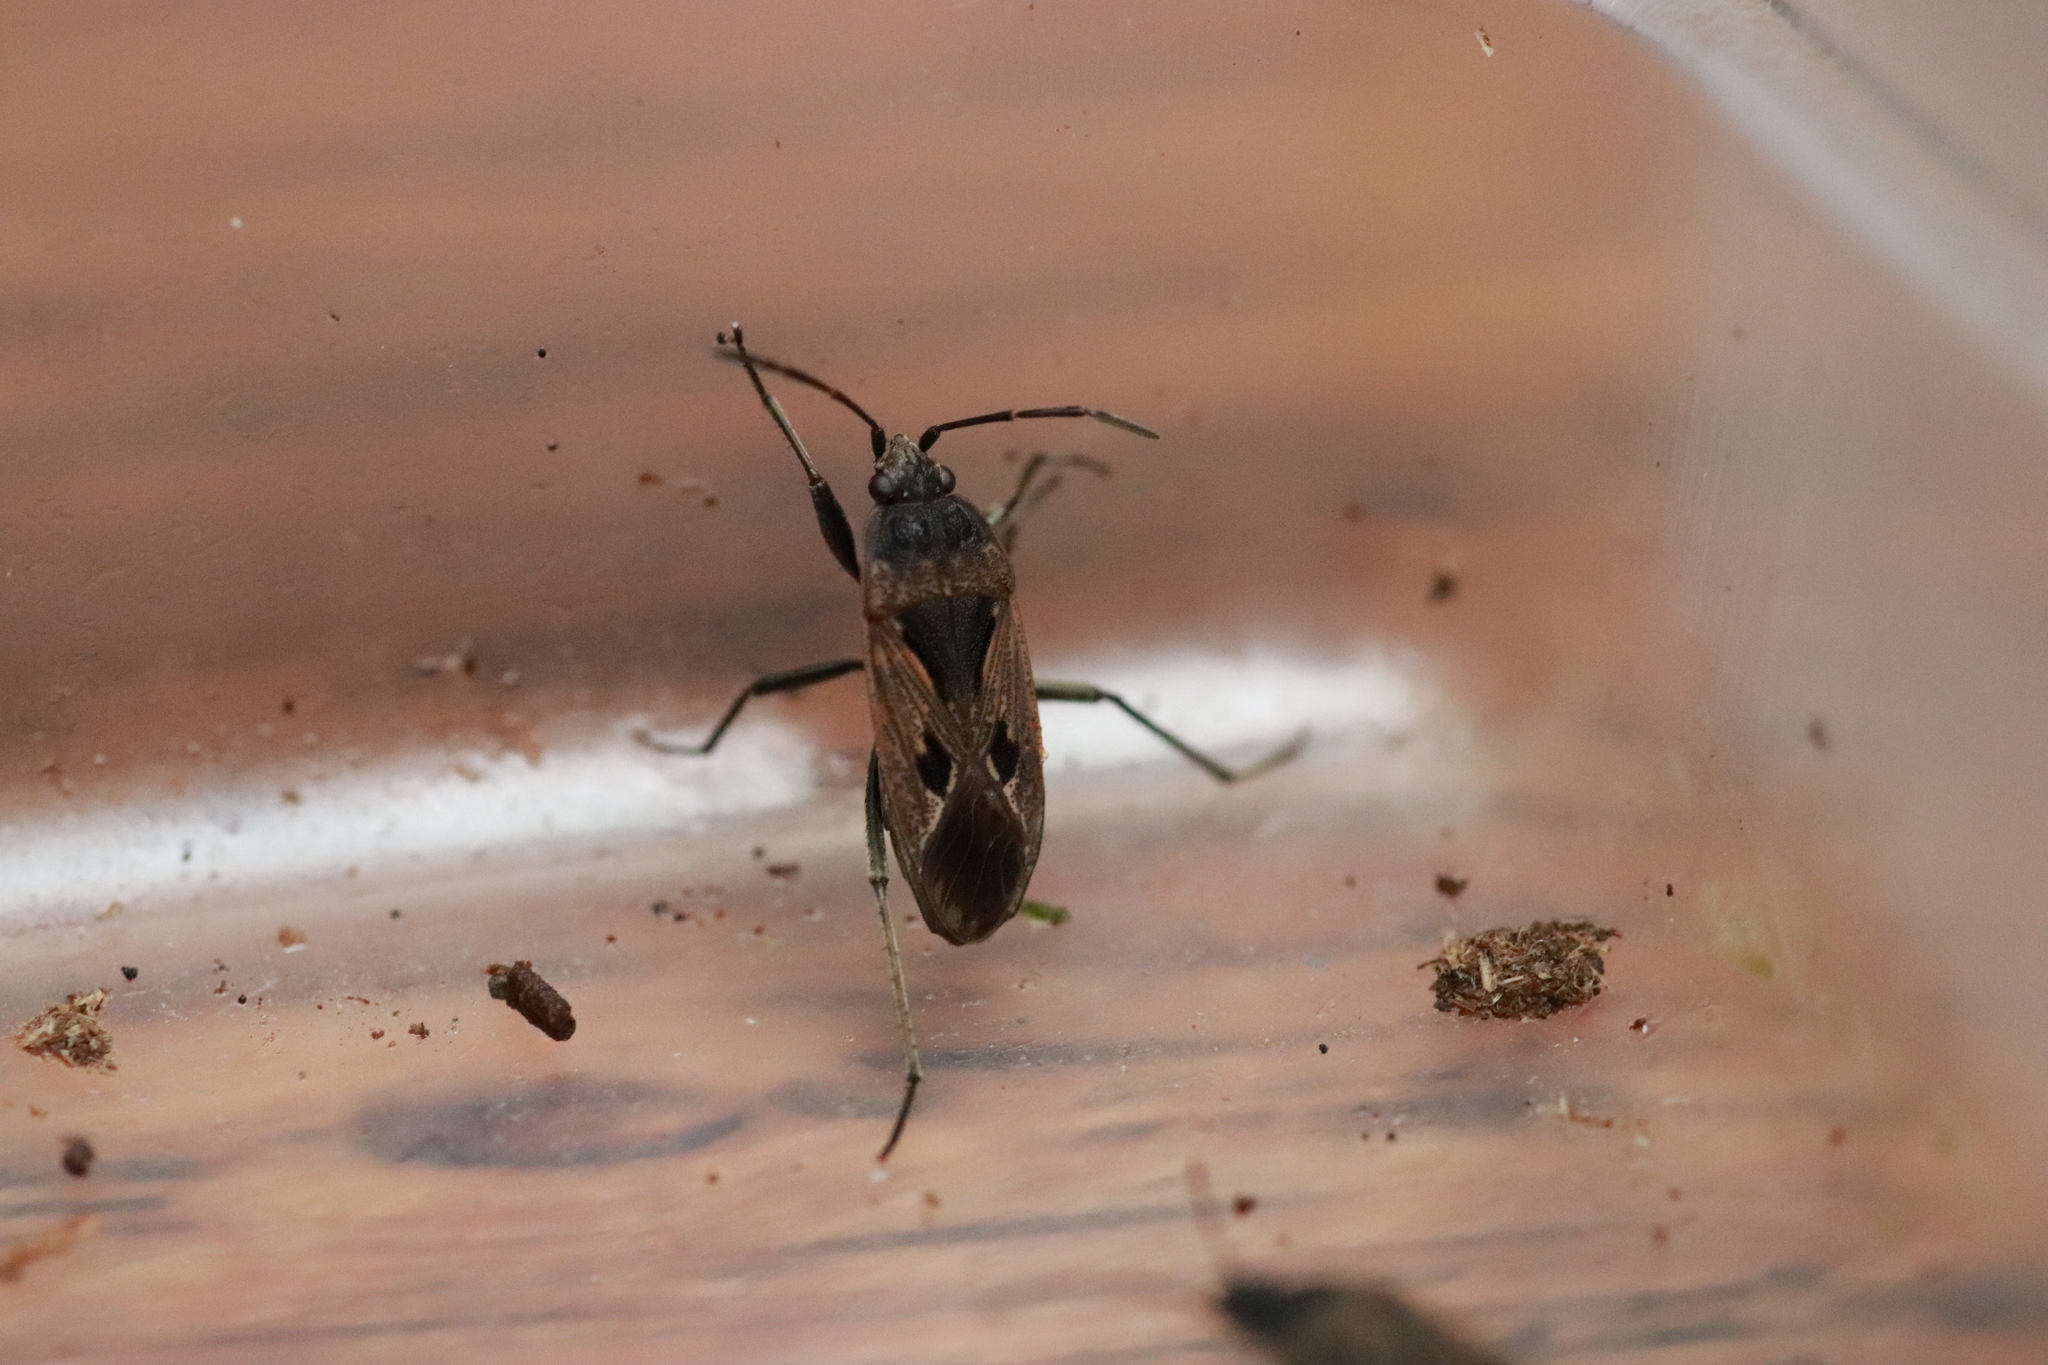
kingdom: Animalia
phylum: Arthropoda
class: Insecta
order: Hemiptera
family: Rhyparochromidae
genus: Rhyparochromus
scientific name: Rhyparochromus pini
